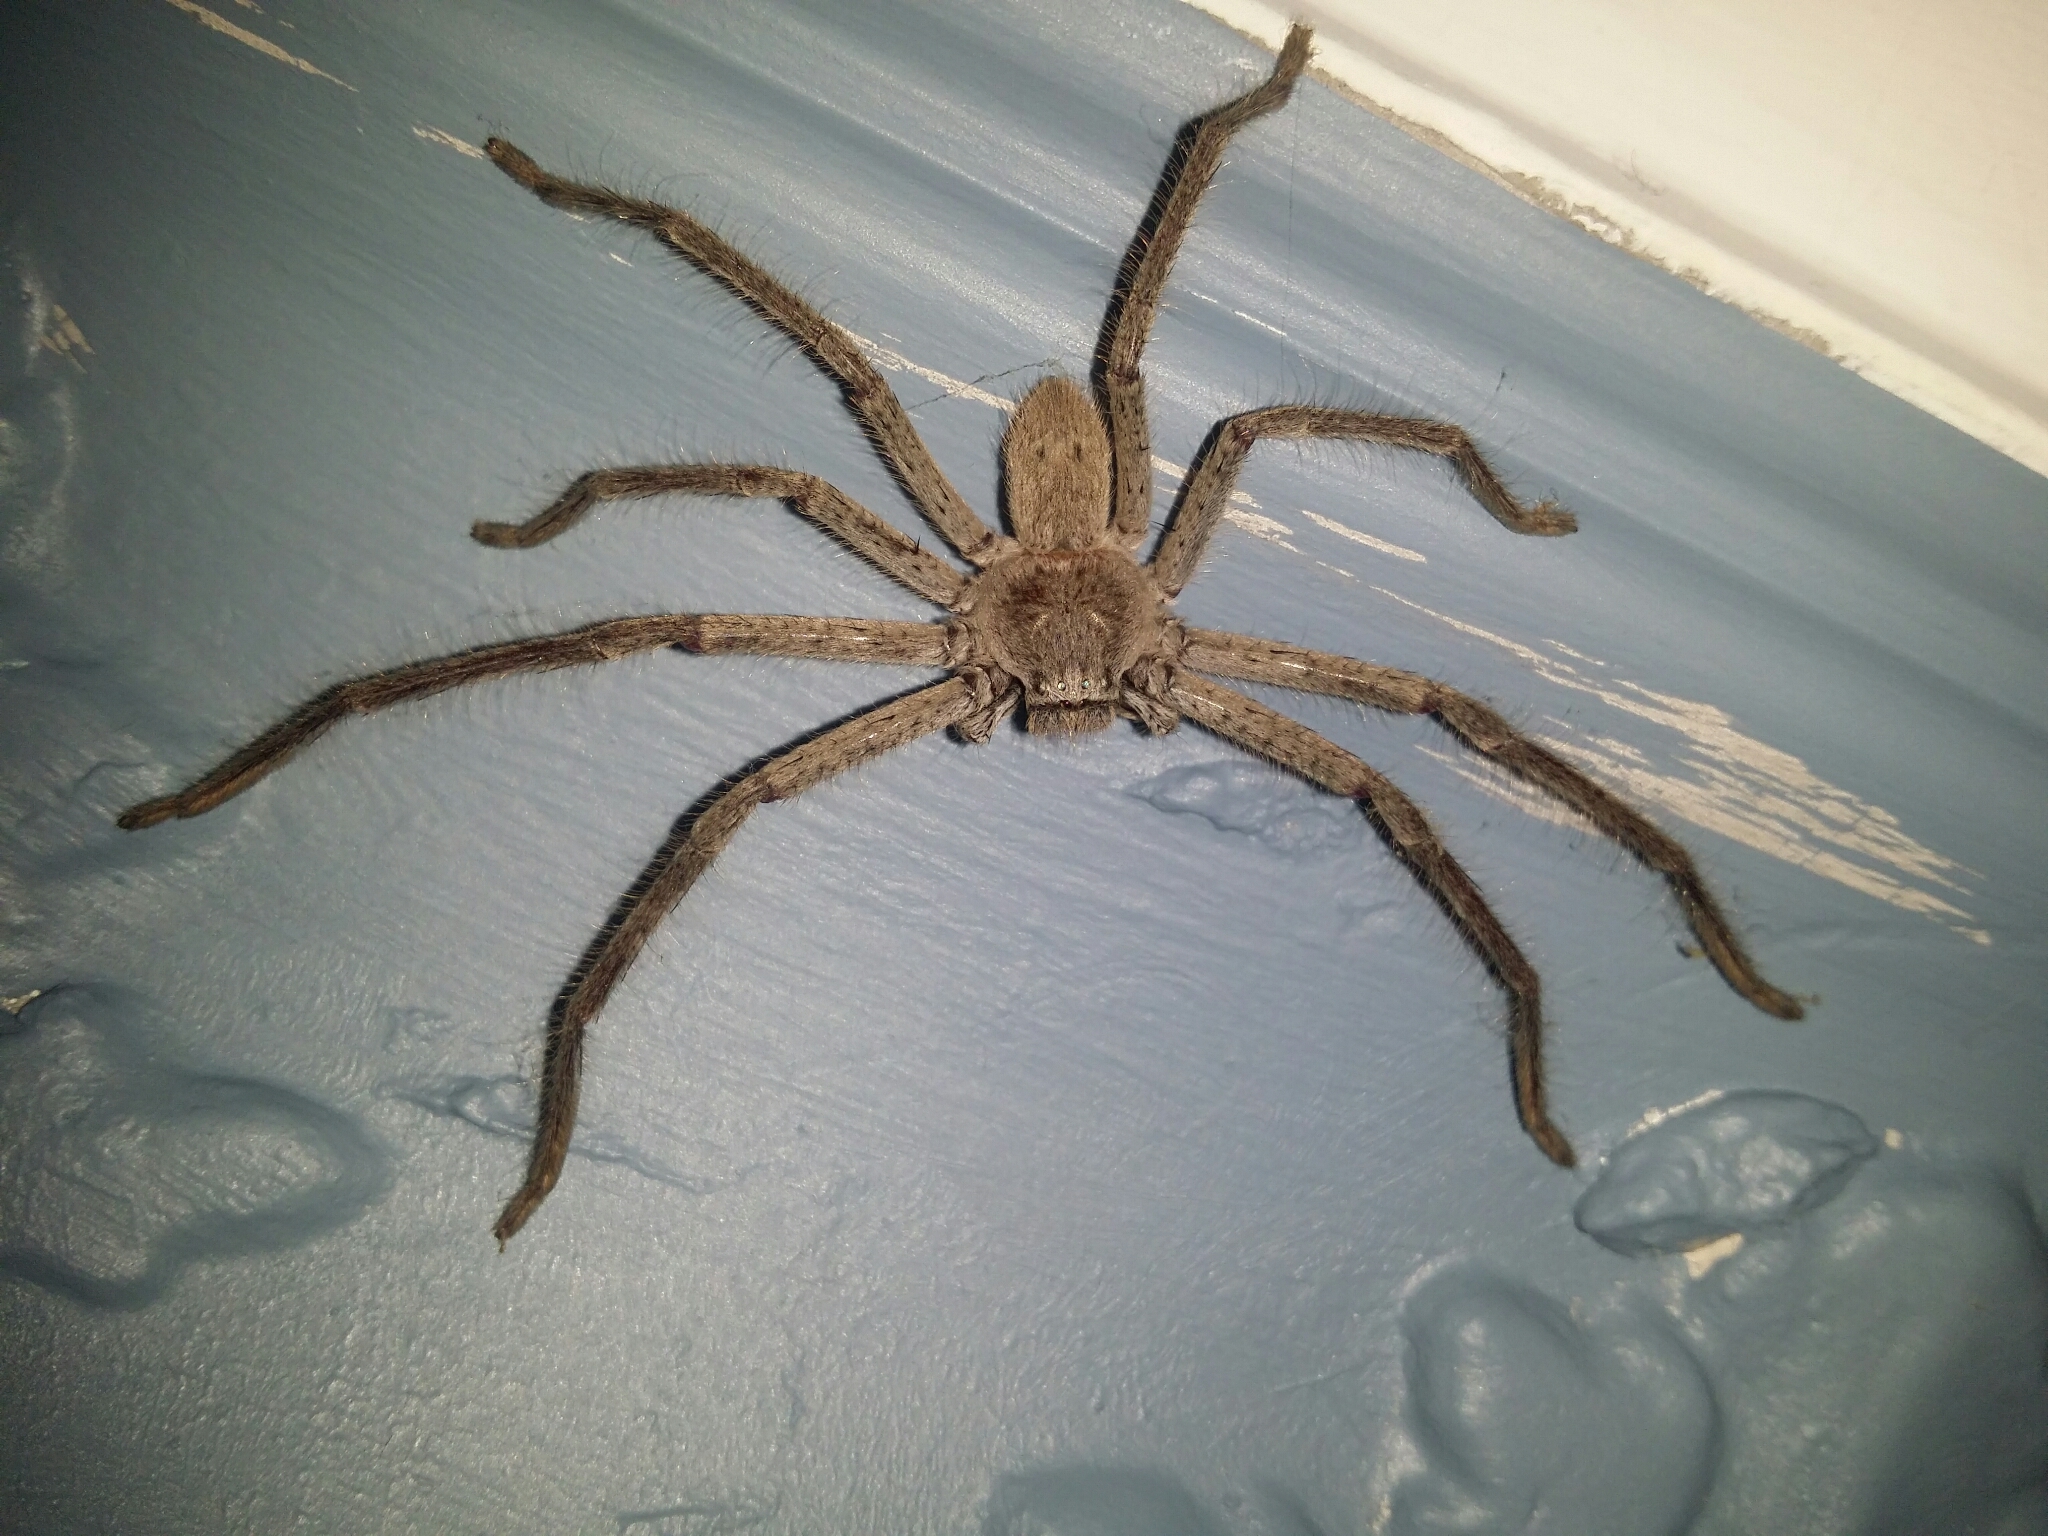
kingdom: Animalia
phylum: Arthropoda
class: Arachnida
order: Araneae
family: Sparassidae
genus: Isopeda
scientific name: Isopeda leishmanni
